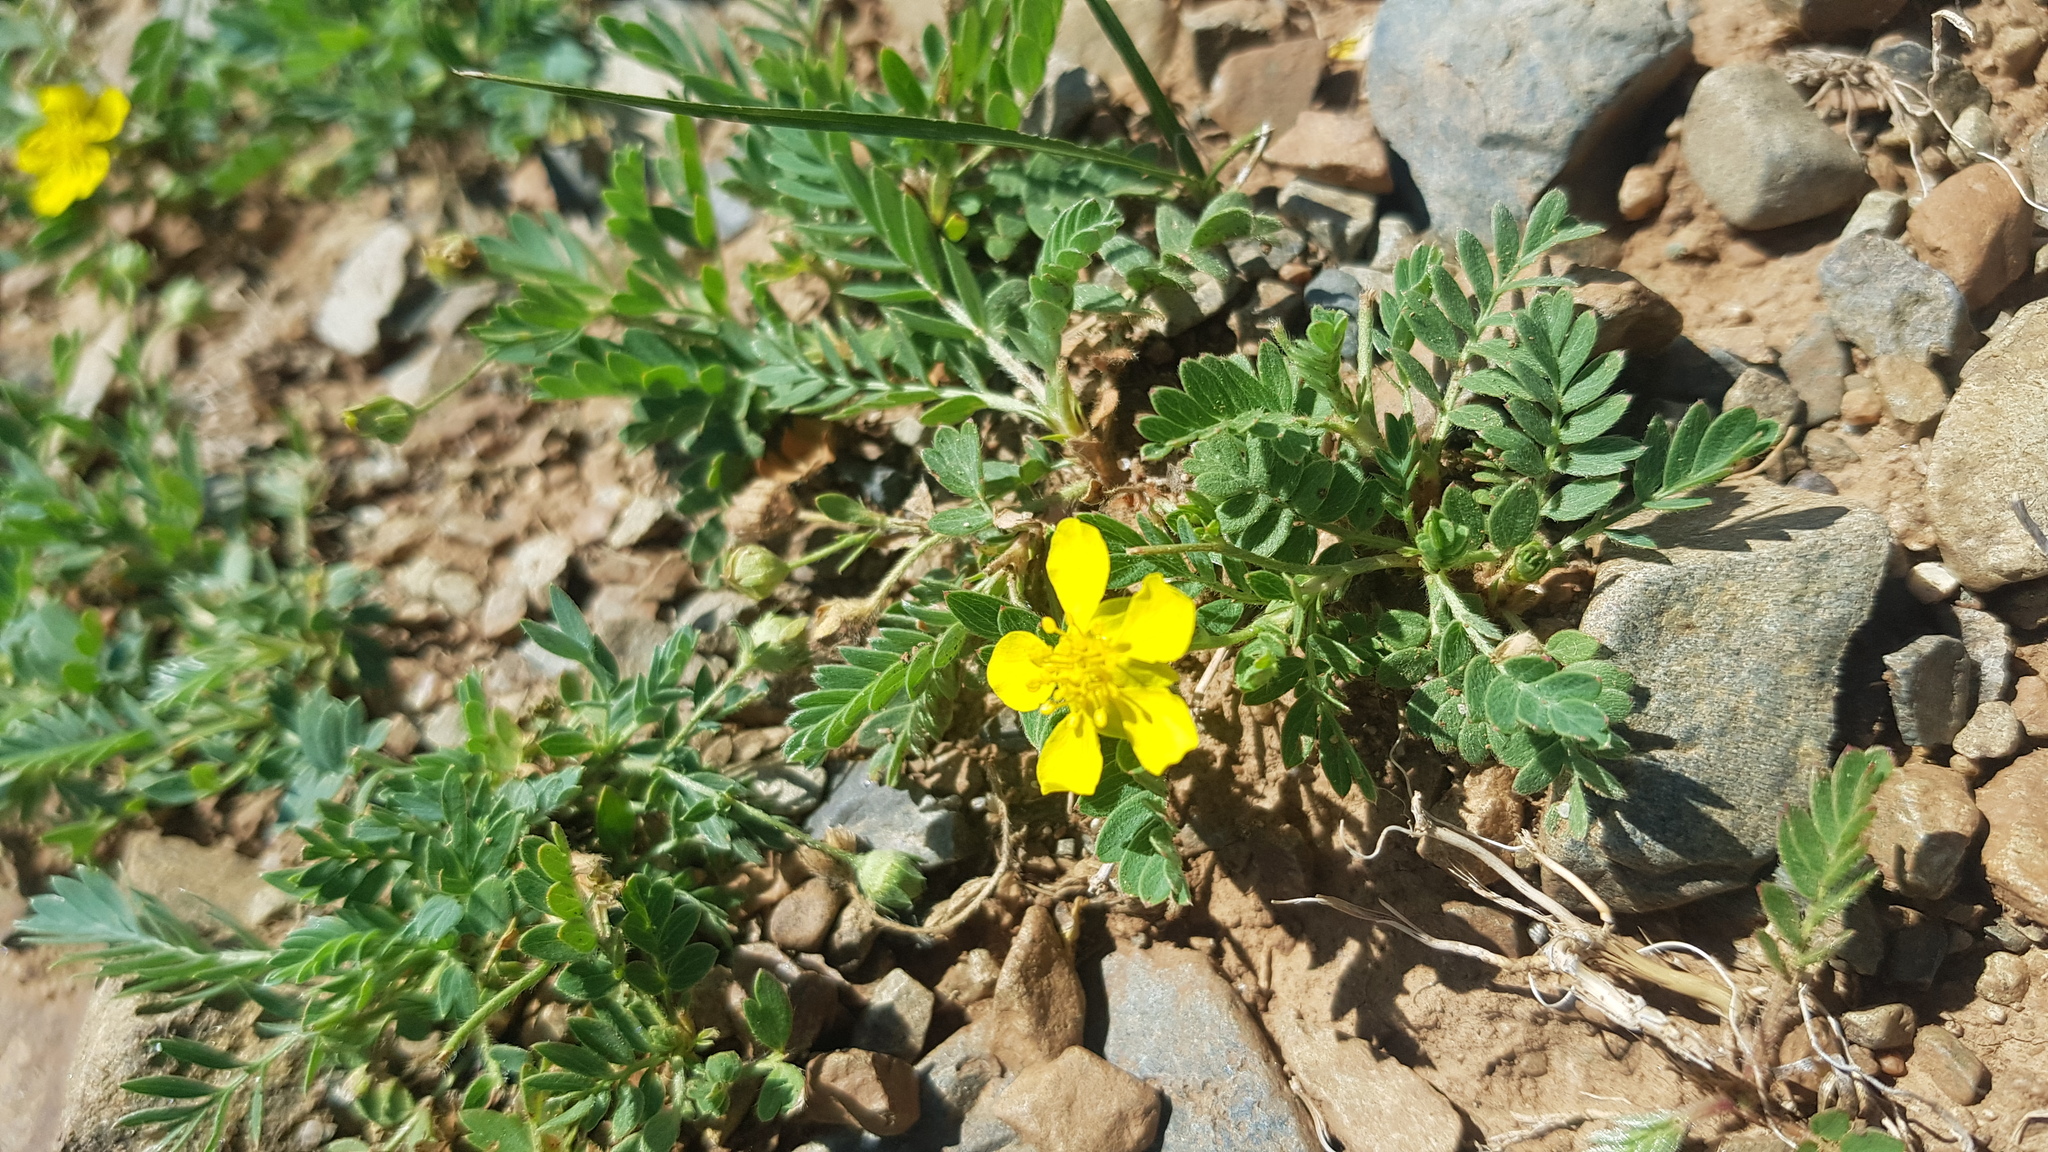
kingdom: Plantae
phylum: Tracheophyta
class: Magnoliopsida
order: Rosales
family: Rosaceae
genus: Sibbaldianthe
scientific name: Sibbaldianthe bifurca
